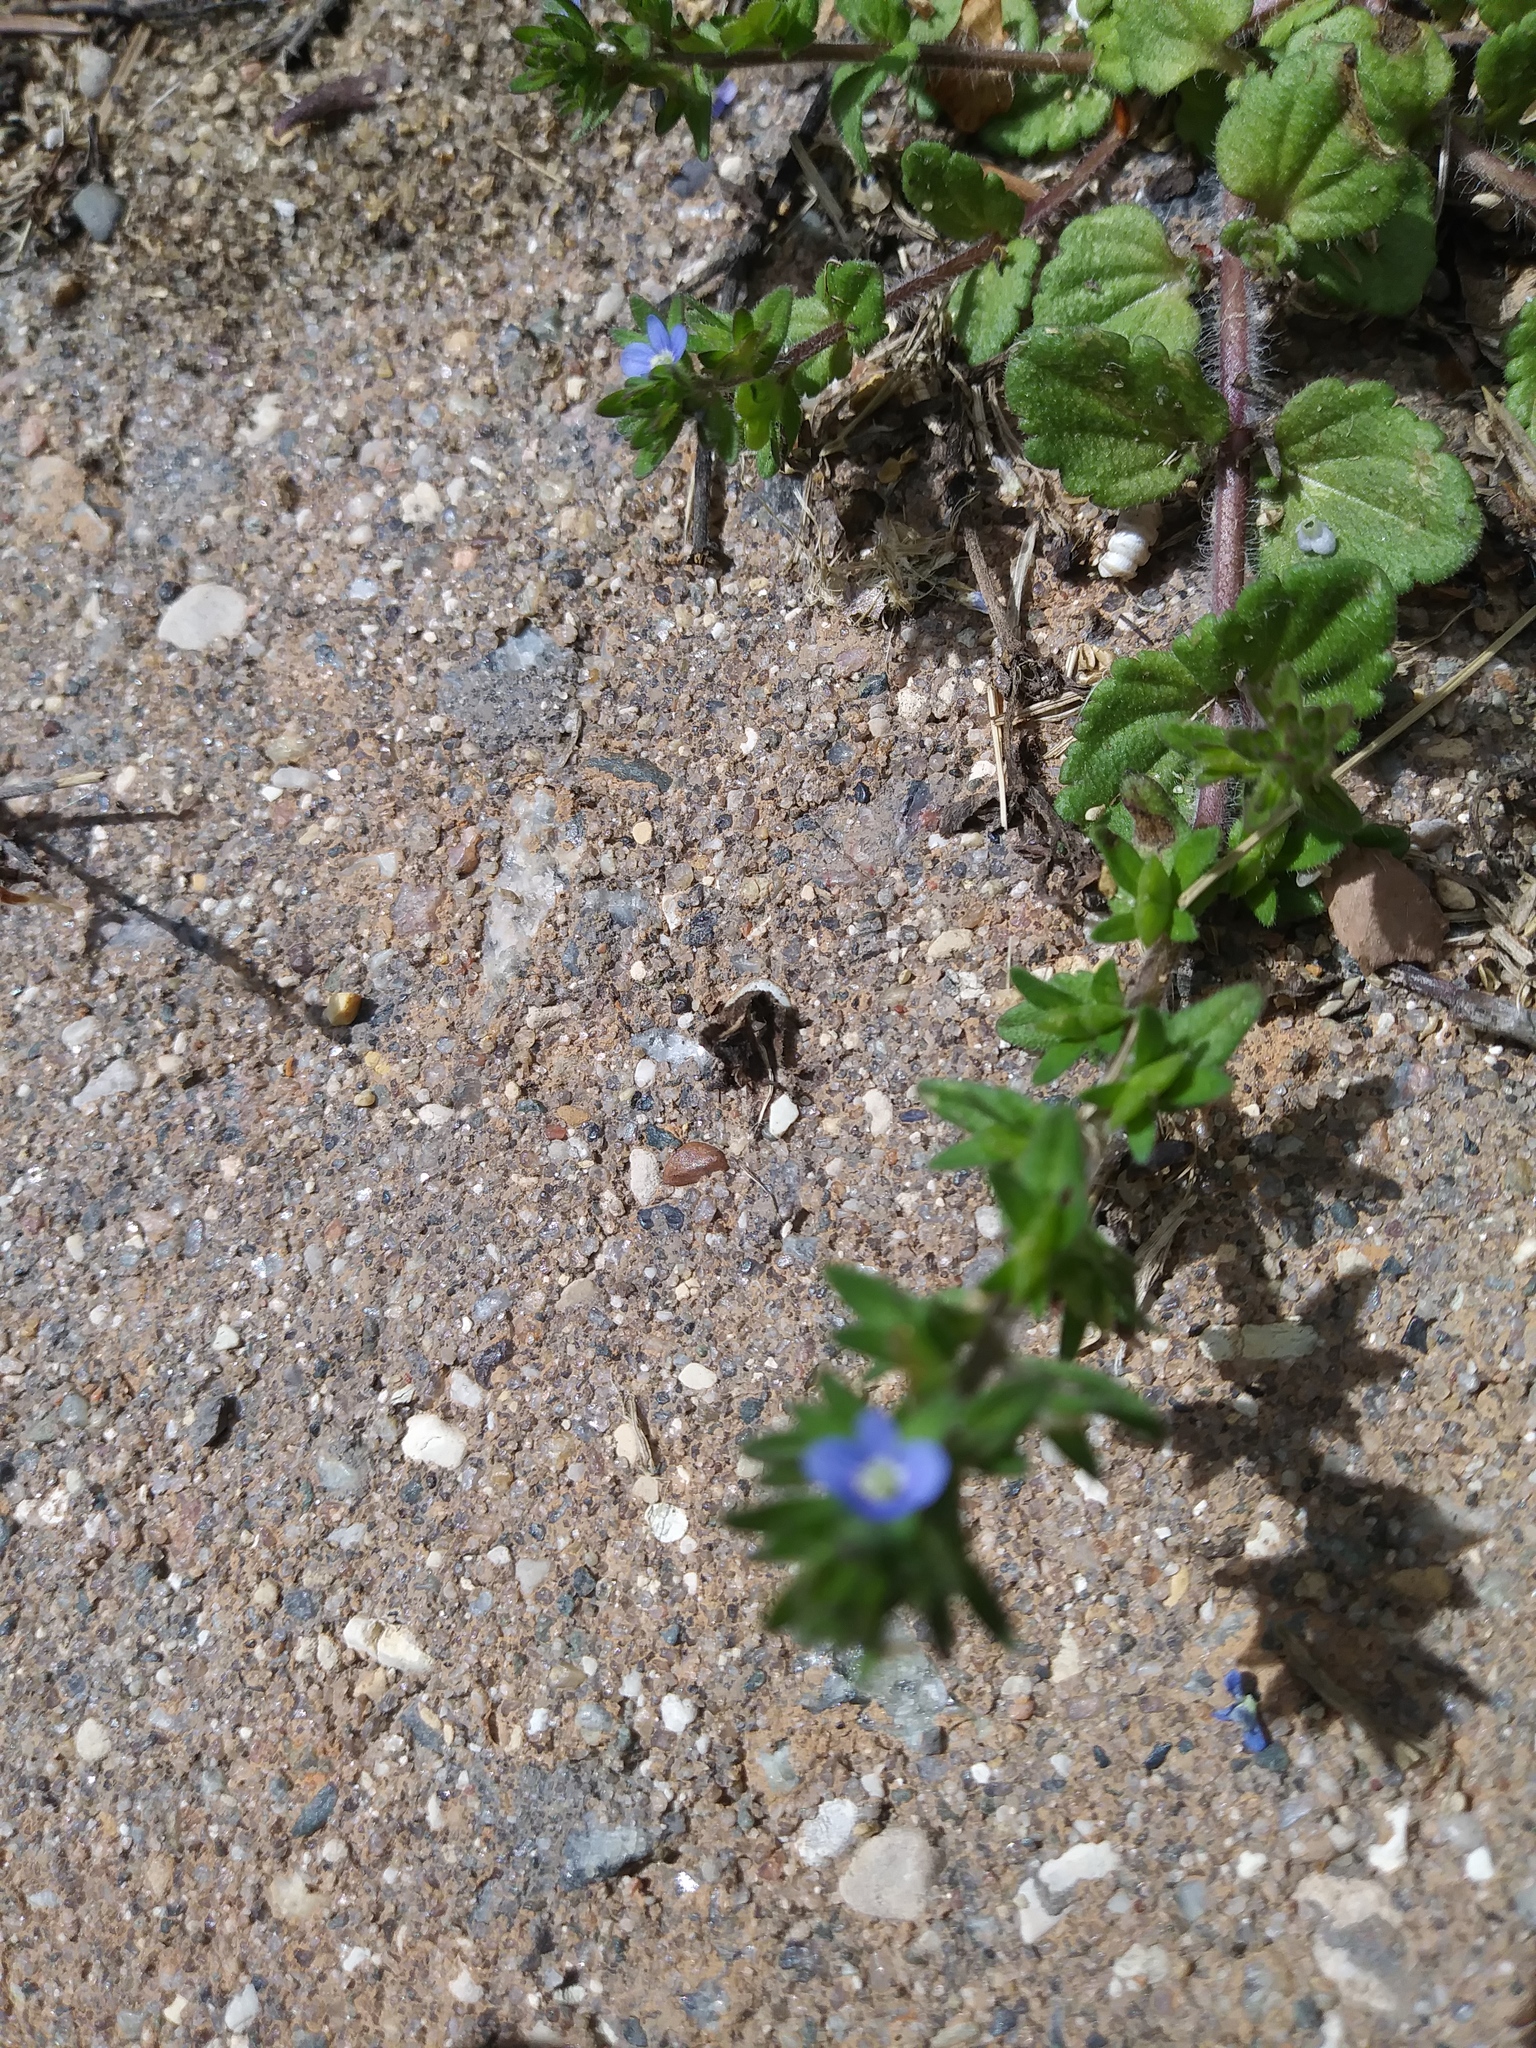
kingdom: Plantae
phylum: Tracheophyta
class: Magnoliopsida
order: Lamiales
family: Plantaginaceae
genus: Veronica
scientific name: Veronica arvensis
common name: Corn speedwell
